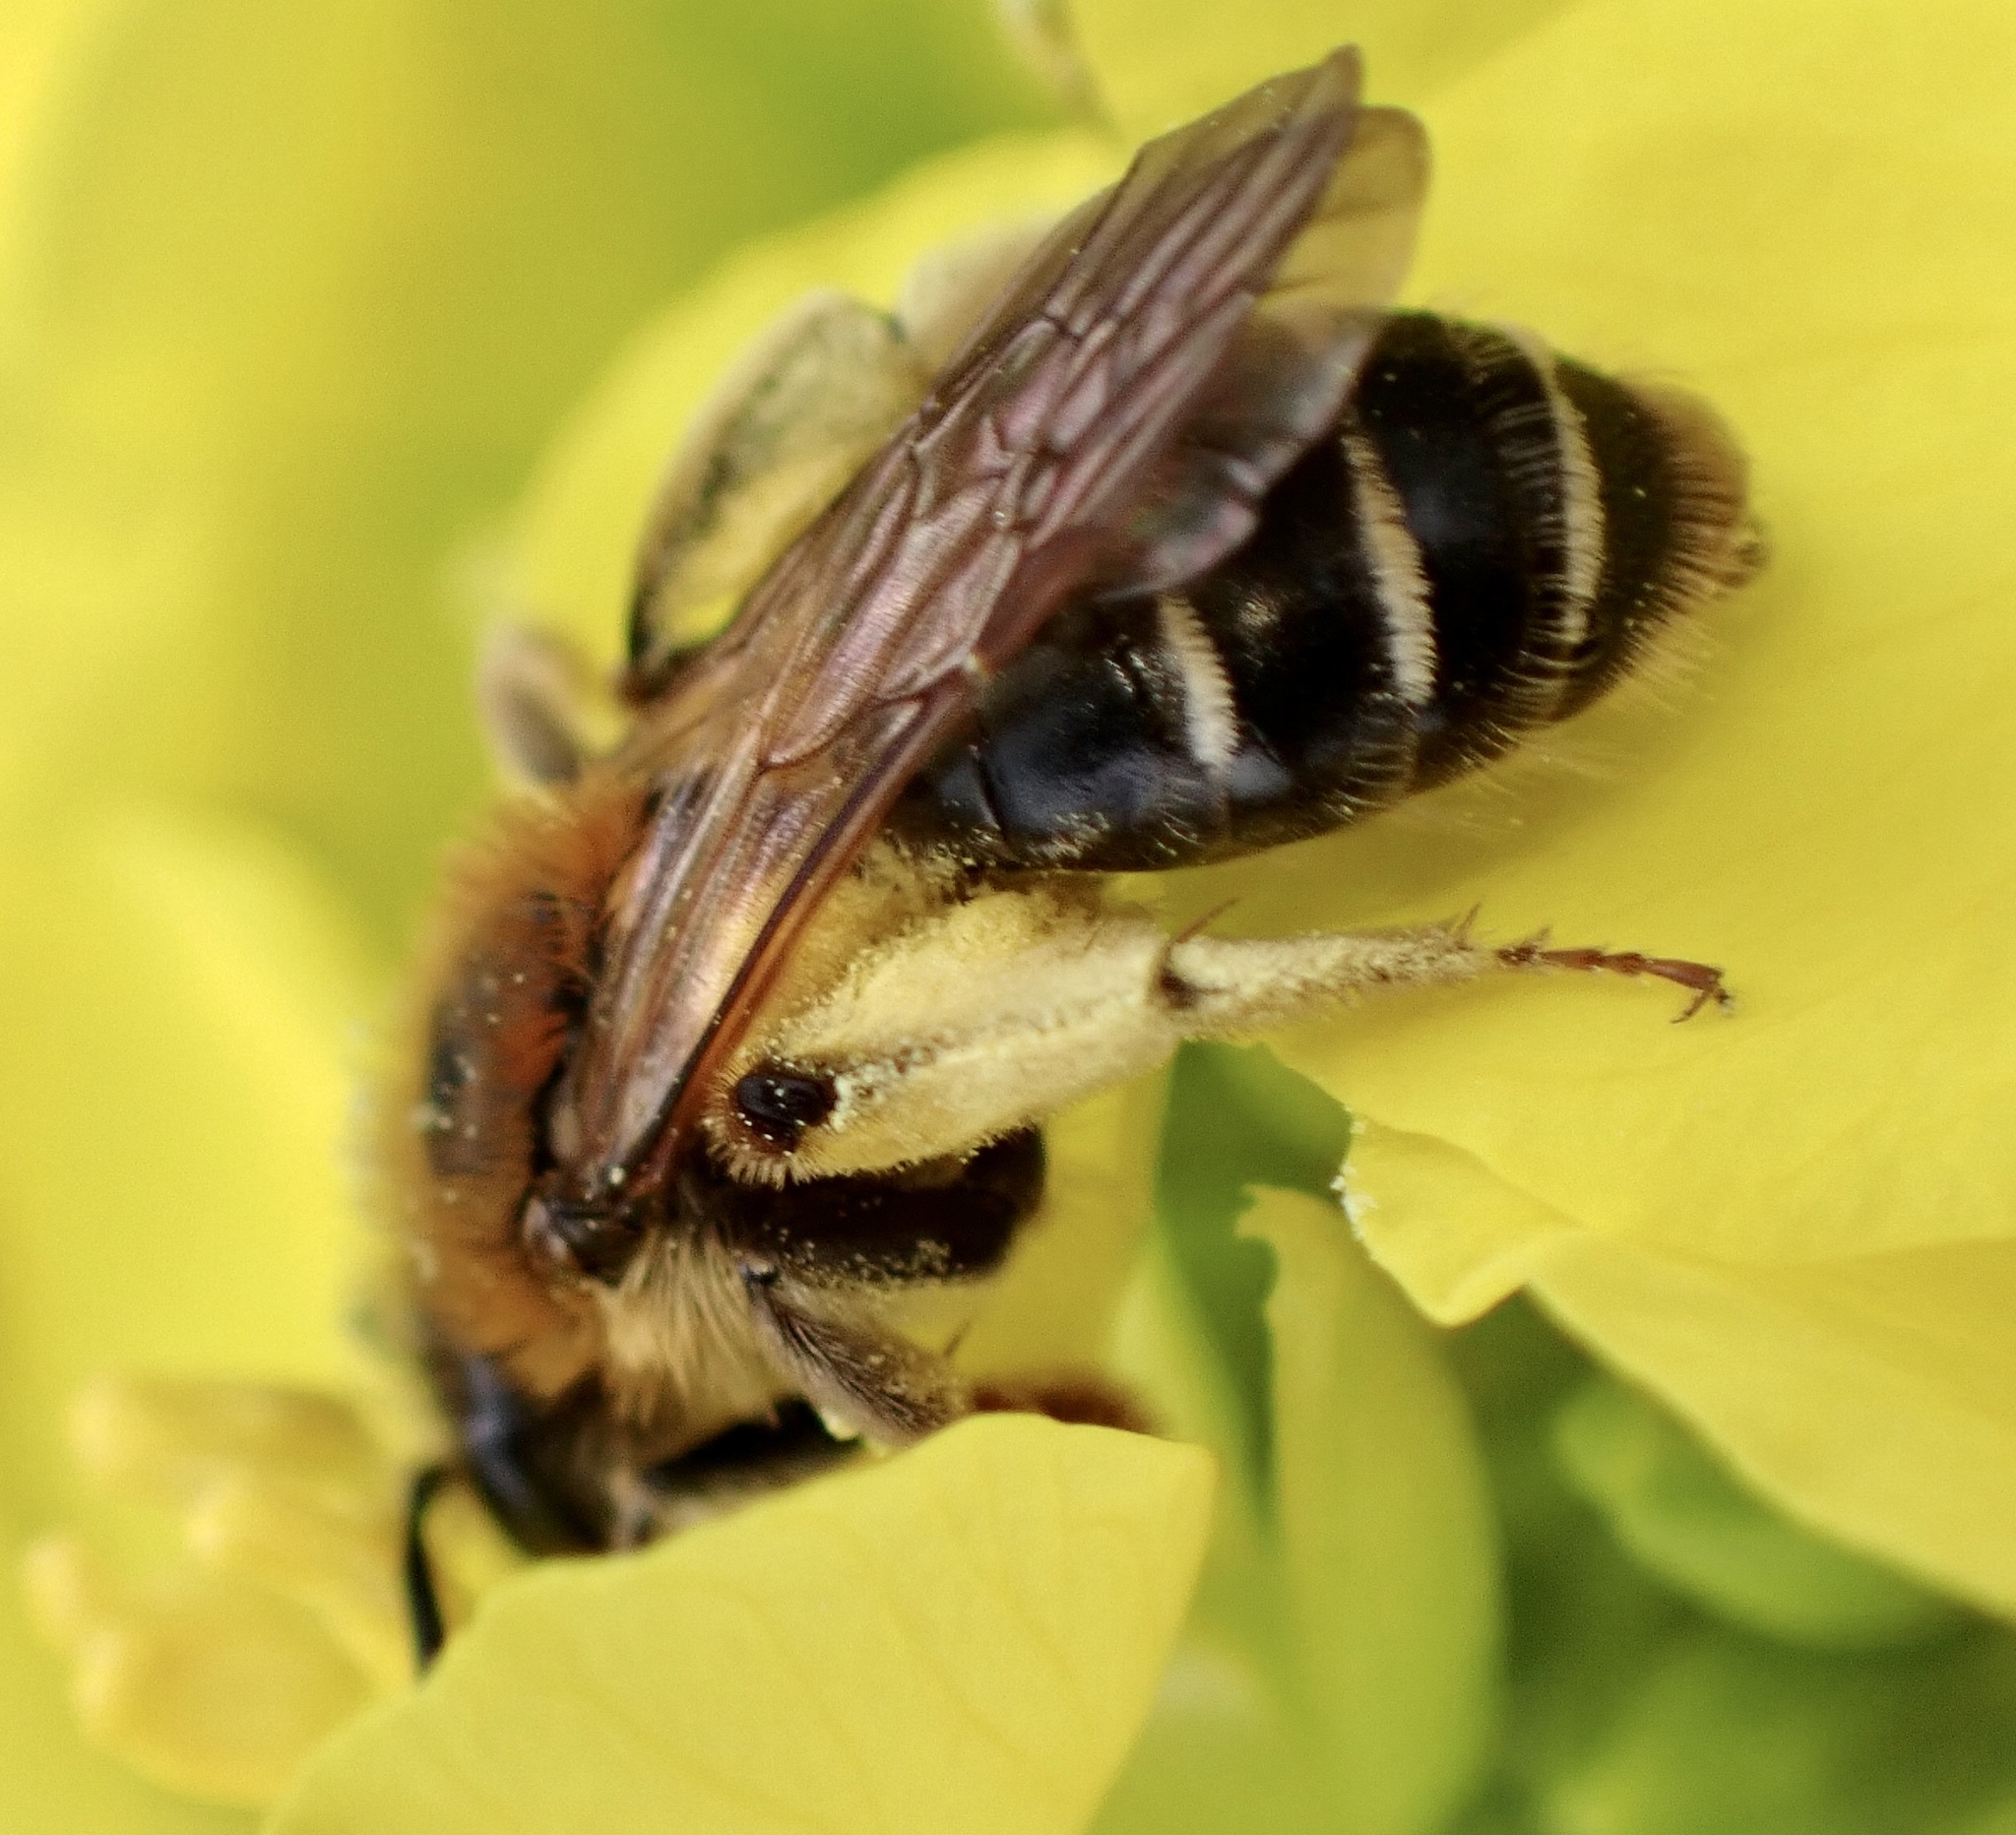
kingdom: Animalia
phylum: Arthropoda
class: Insecta
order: Hymenoptera
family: Andrenidae
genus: Andrena
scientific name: Andrena dorsata
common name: Short-fringed mining bee
